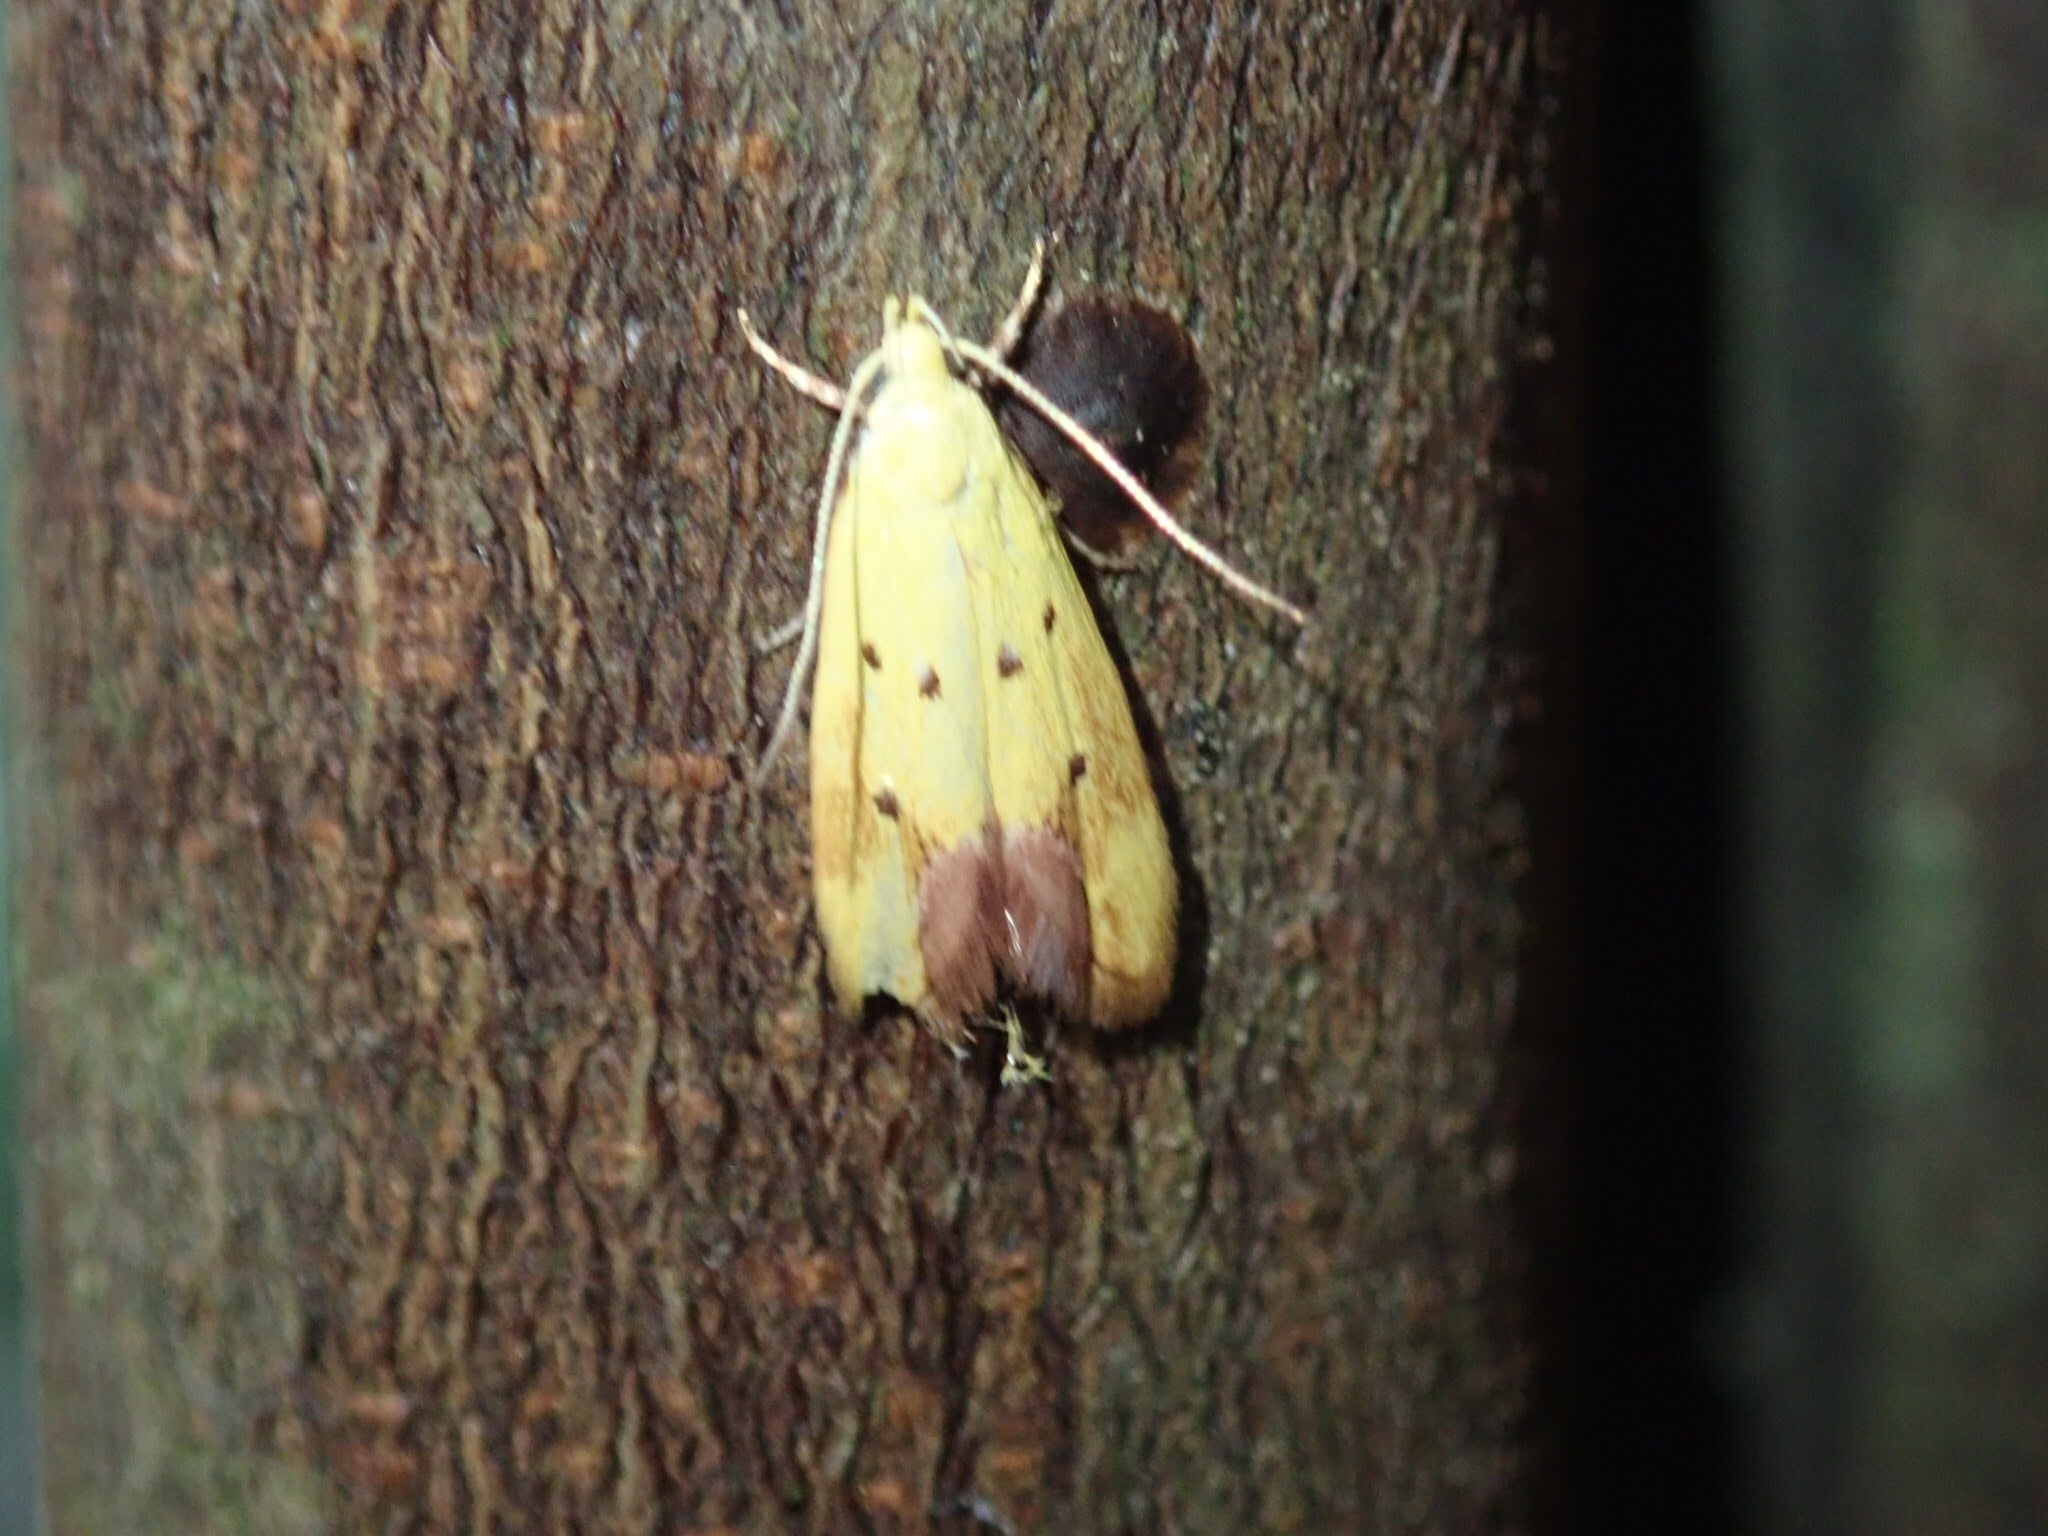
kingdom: Animalia
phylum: Arthropoda
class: Insecta
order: Lepidoptera
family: Oecophoridae
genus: Gymnobathra
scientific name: Gymnobathra flavidella
